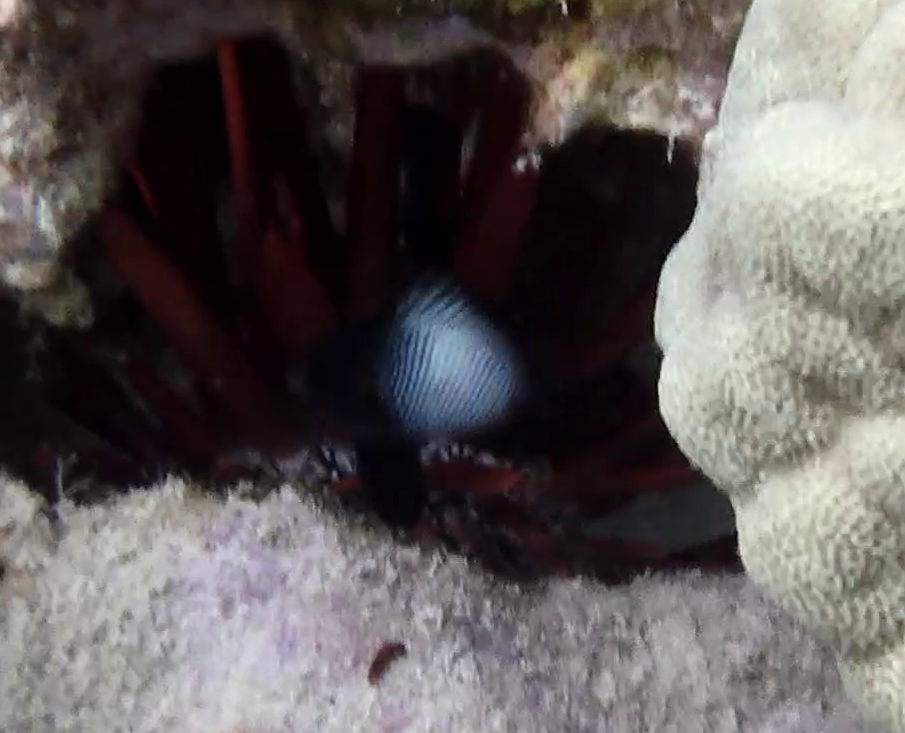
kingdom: Animalia
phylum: Chordata
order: Perciformes
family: Pomacentridae
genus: Dascyllus
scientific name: Dascyllus albisella
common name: Hawaiian dascyllus
